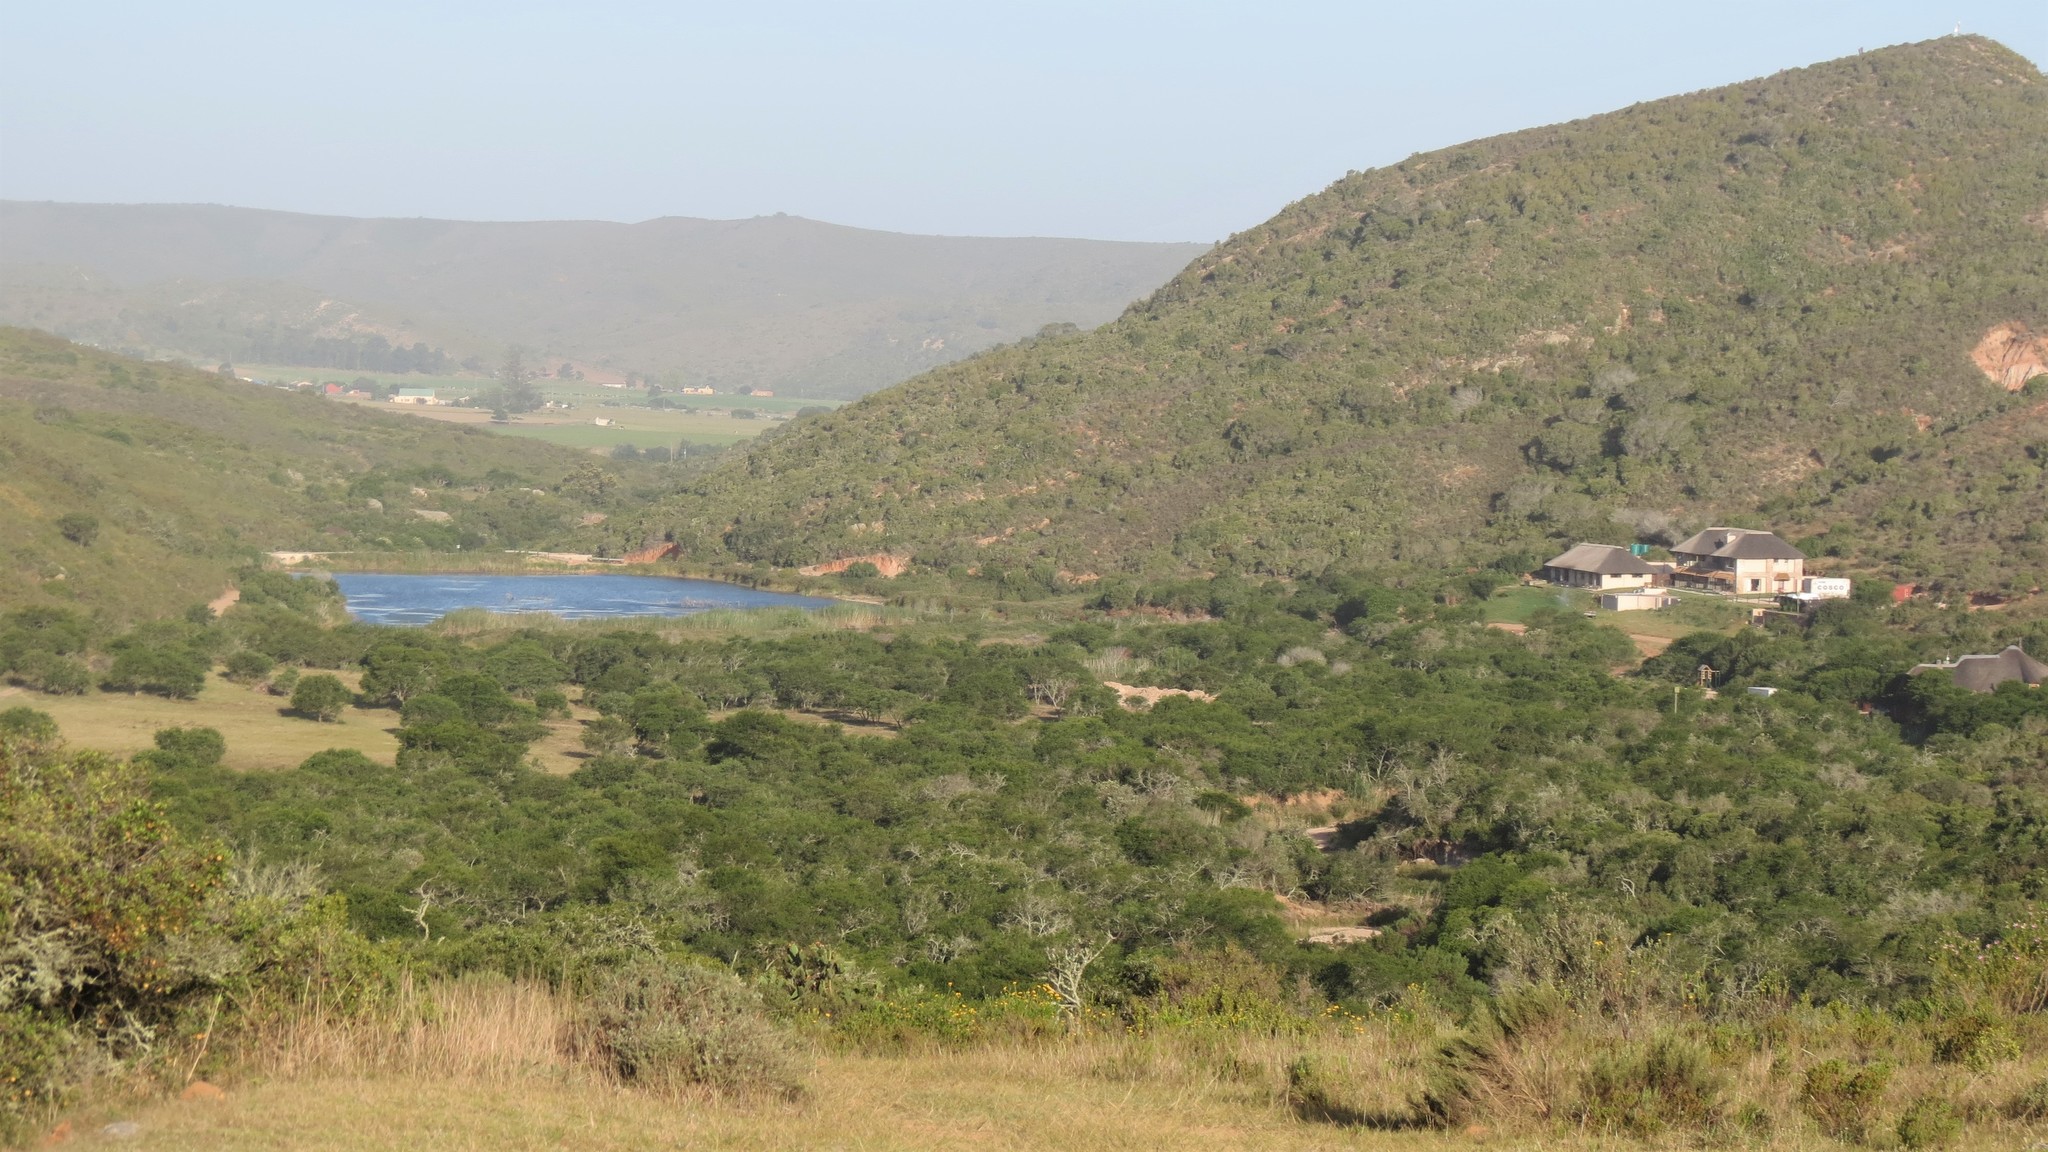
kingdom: Plantae
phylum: Tracheophyta
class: Magnoliopsida
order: Fabales
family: Fabaceae
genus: Vachellia
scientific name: Vachellia karroo
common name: Sweet thorn
